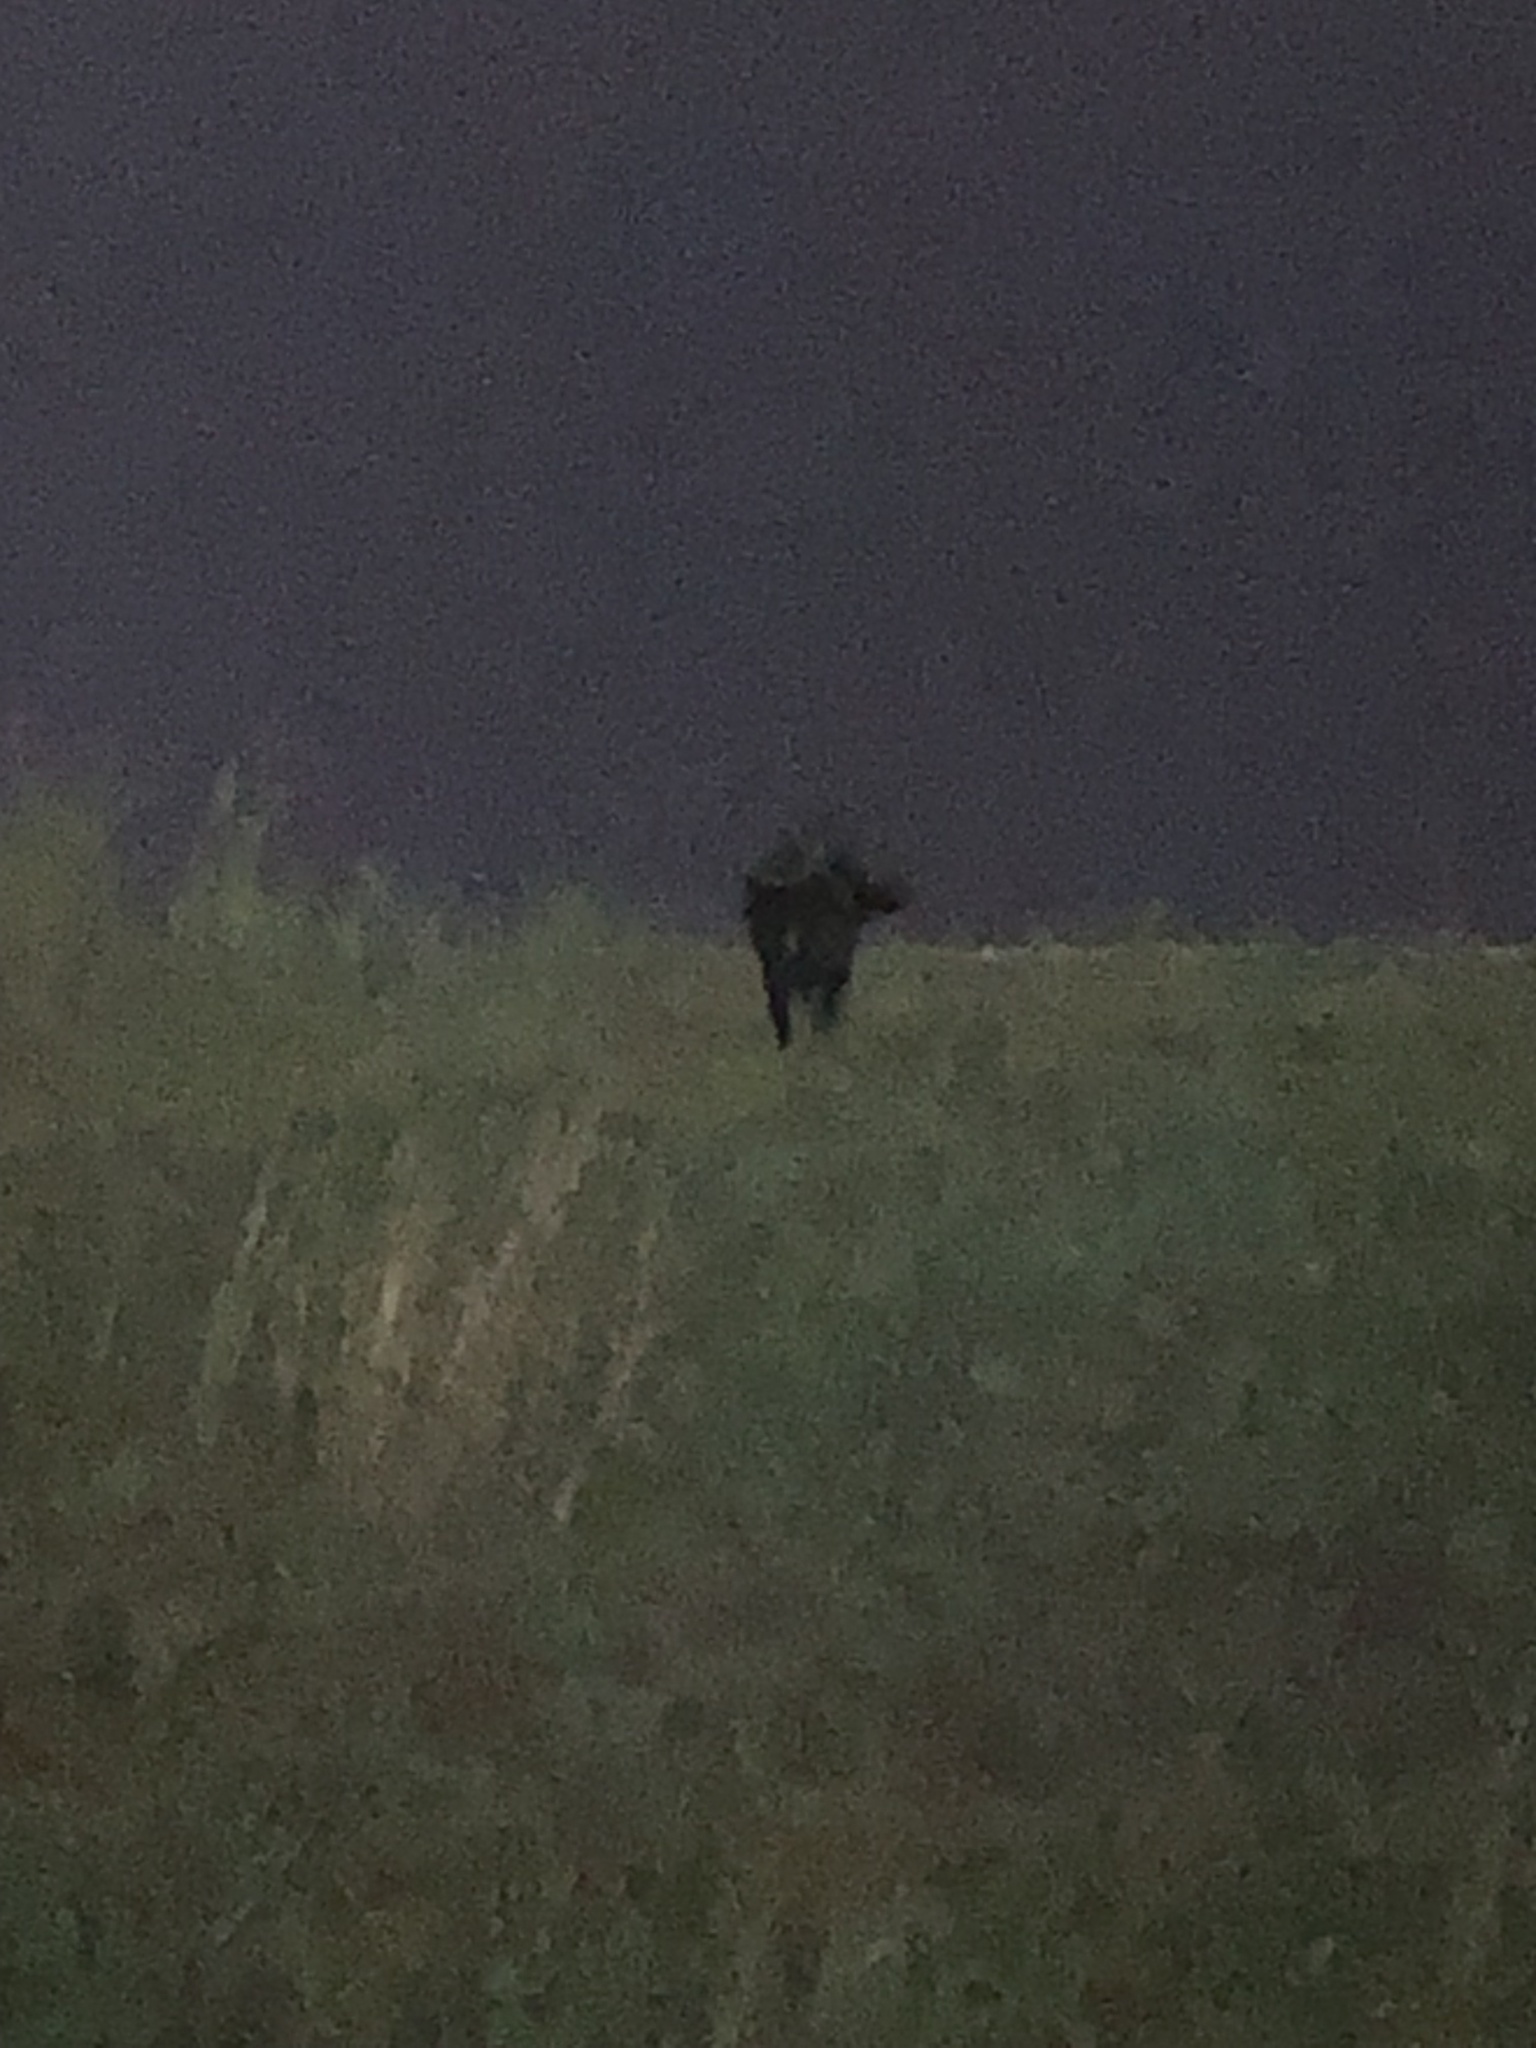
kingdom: Animalia
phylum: Chordata
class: Mammalia
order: Artiodactyla
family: Suidae
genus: Sus
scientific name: Sus scrofa
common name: Wild boar
